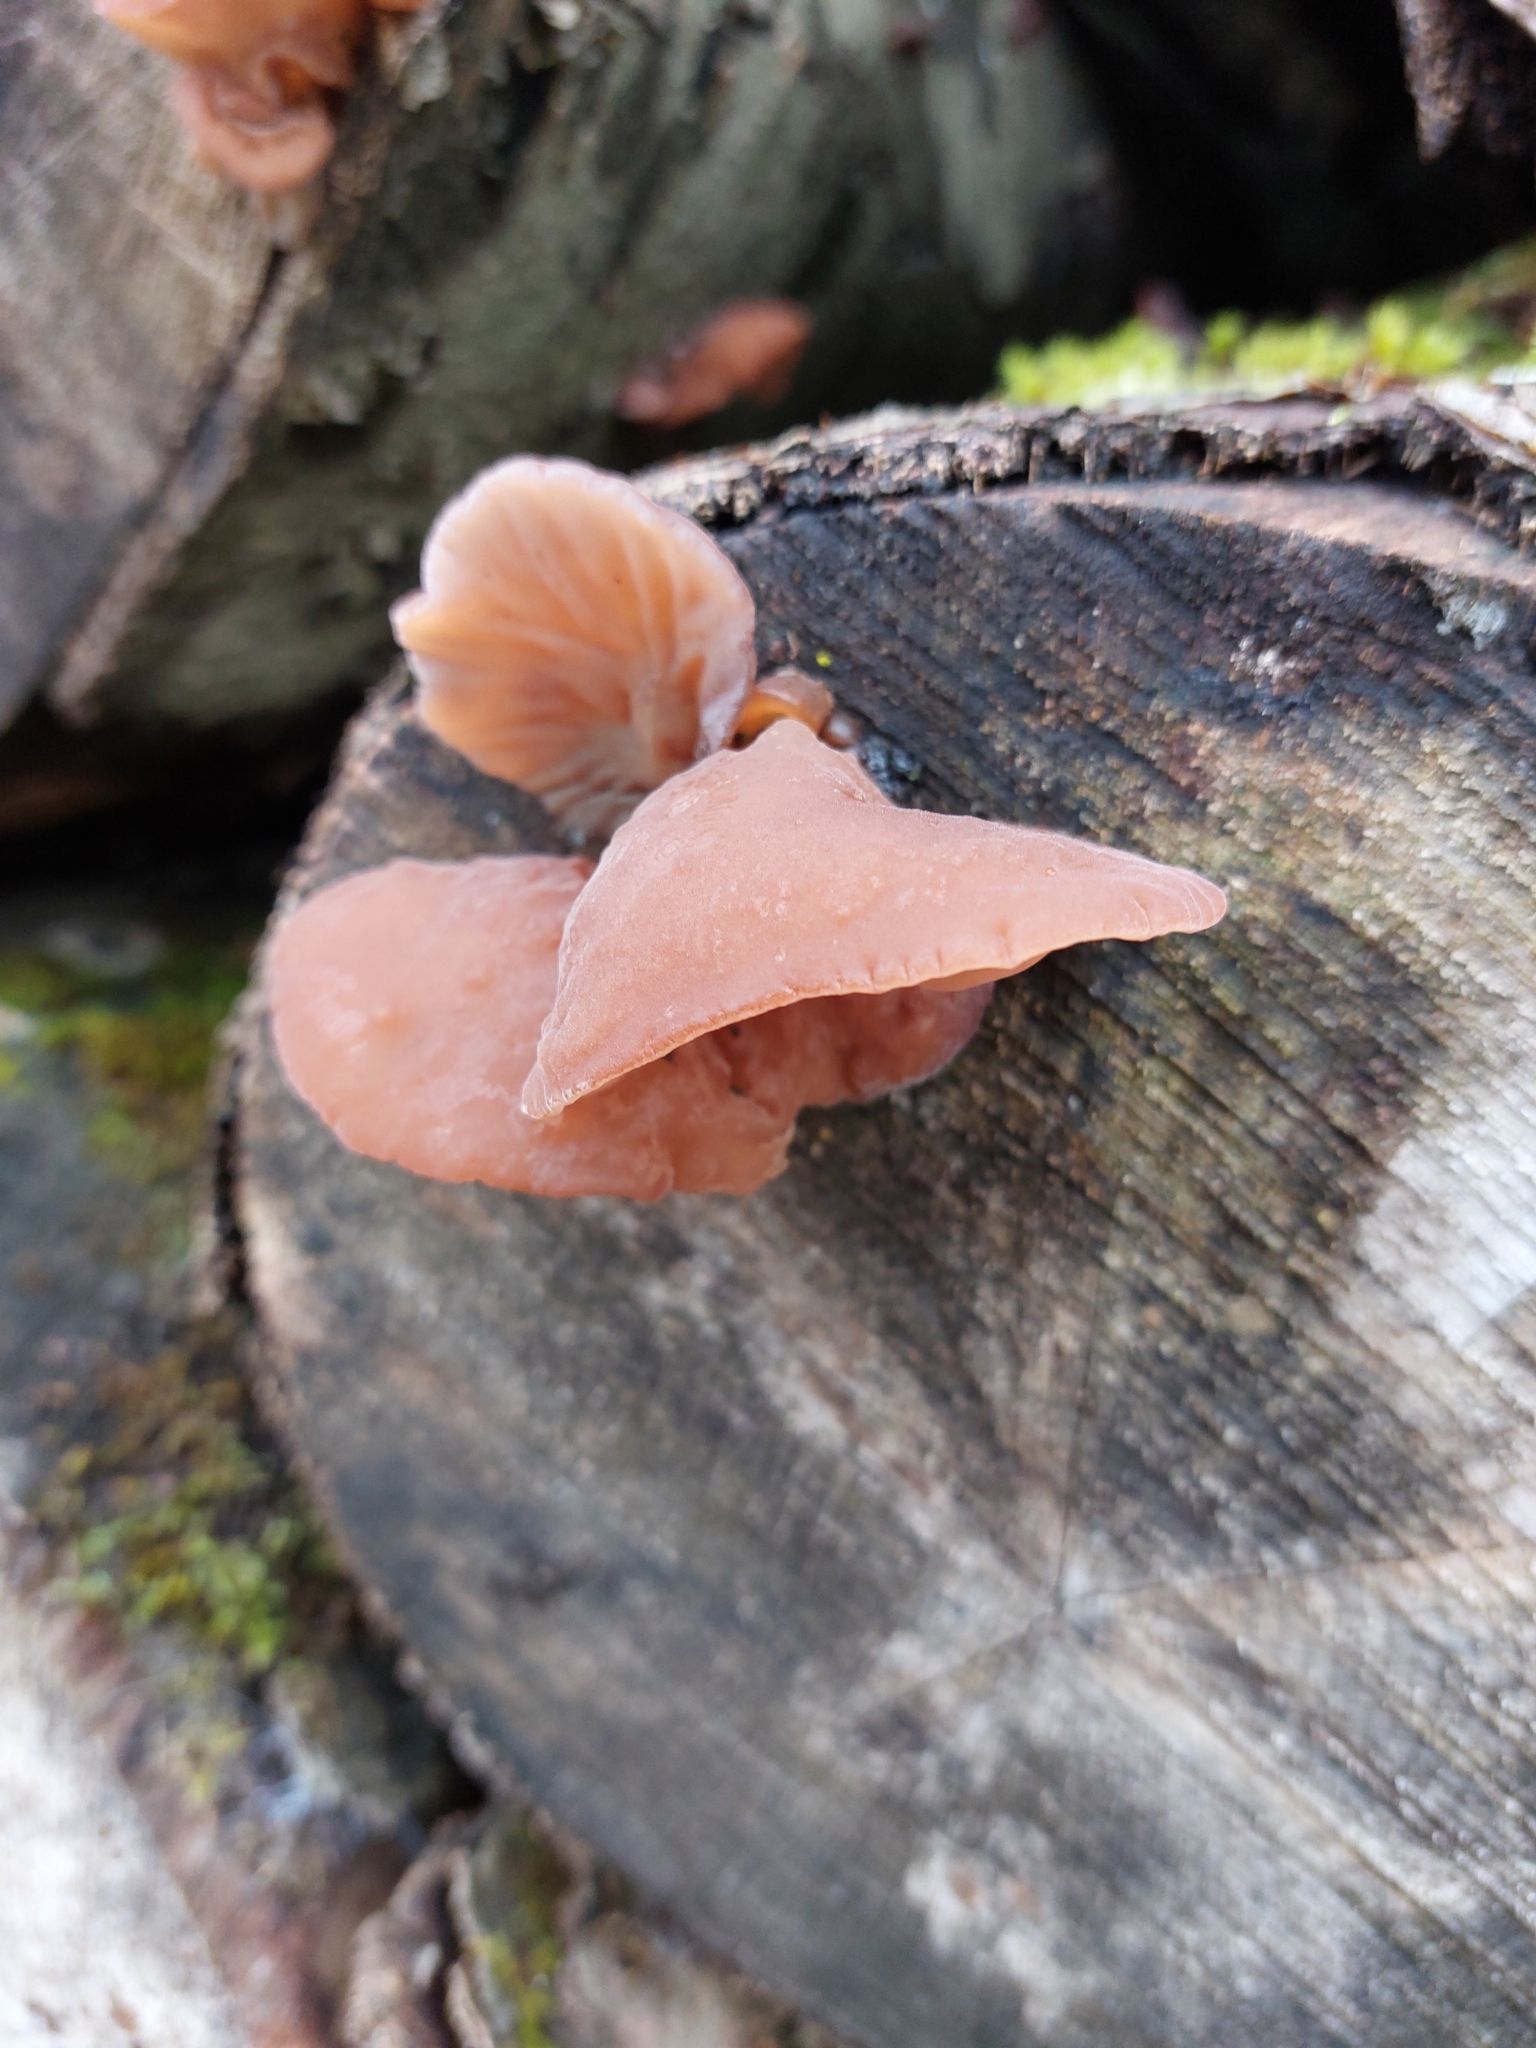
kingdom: Fungi
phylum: Basidiomycota
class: Agaricomycetes
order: Auriculariales
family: Auriculariaceae
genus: Auricularia
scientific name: Auricularia auricula-judae
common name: Jelly ear
